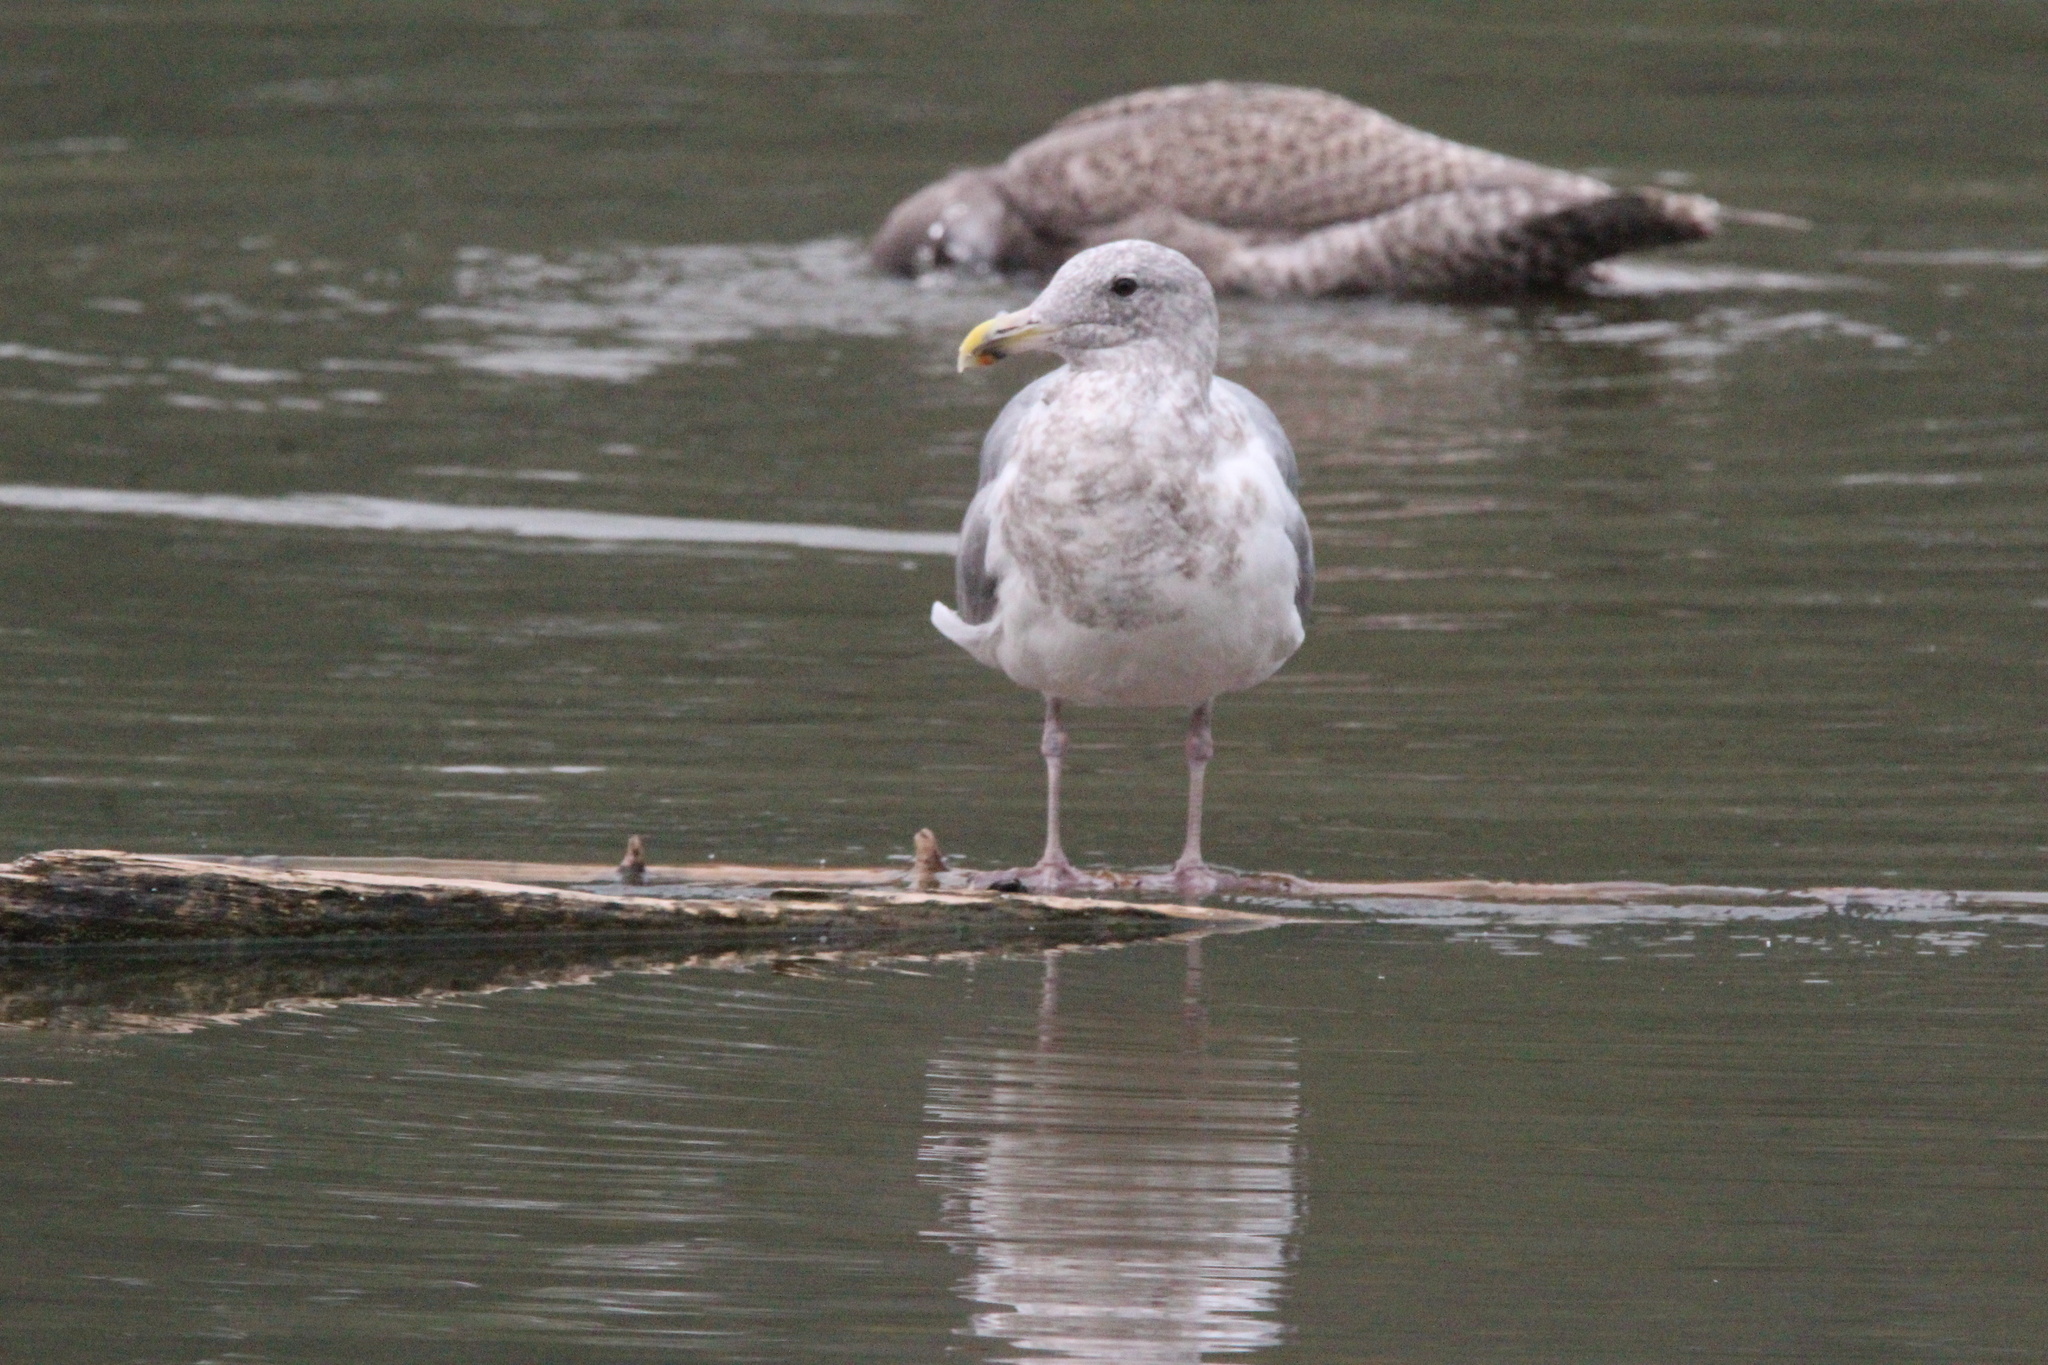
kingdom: Animalia
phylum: Chordata
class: Aves
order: Charadriiformes
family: Laridae
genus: Larus
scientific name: Larus
